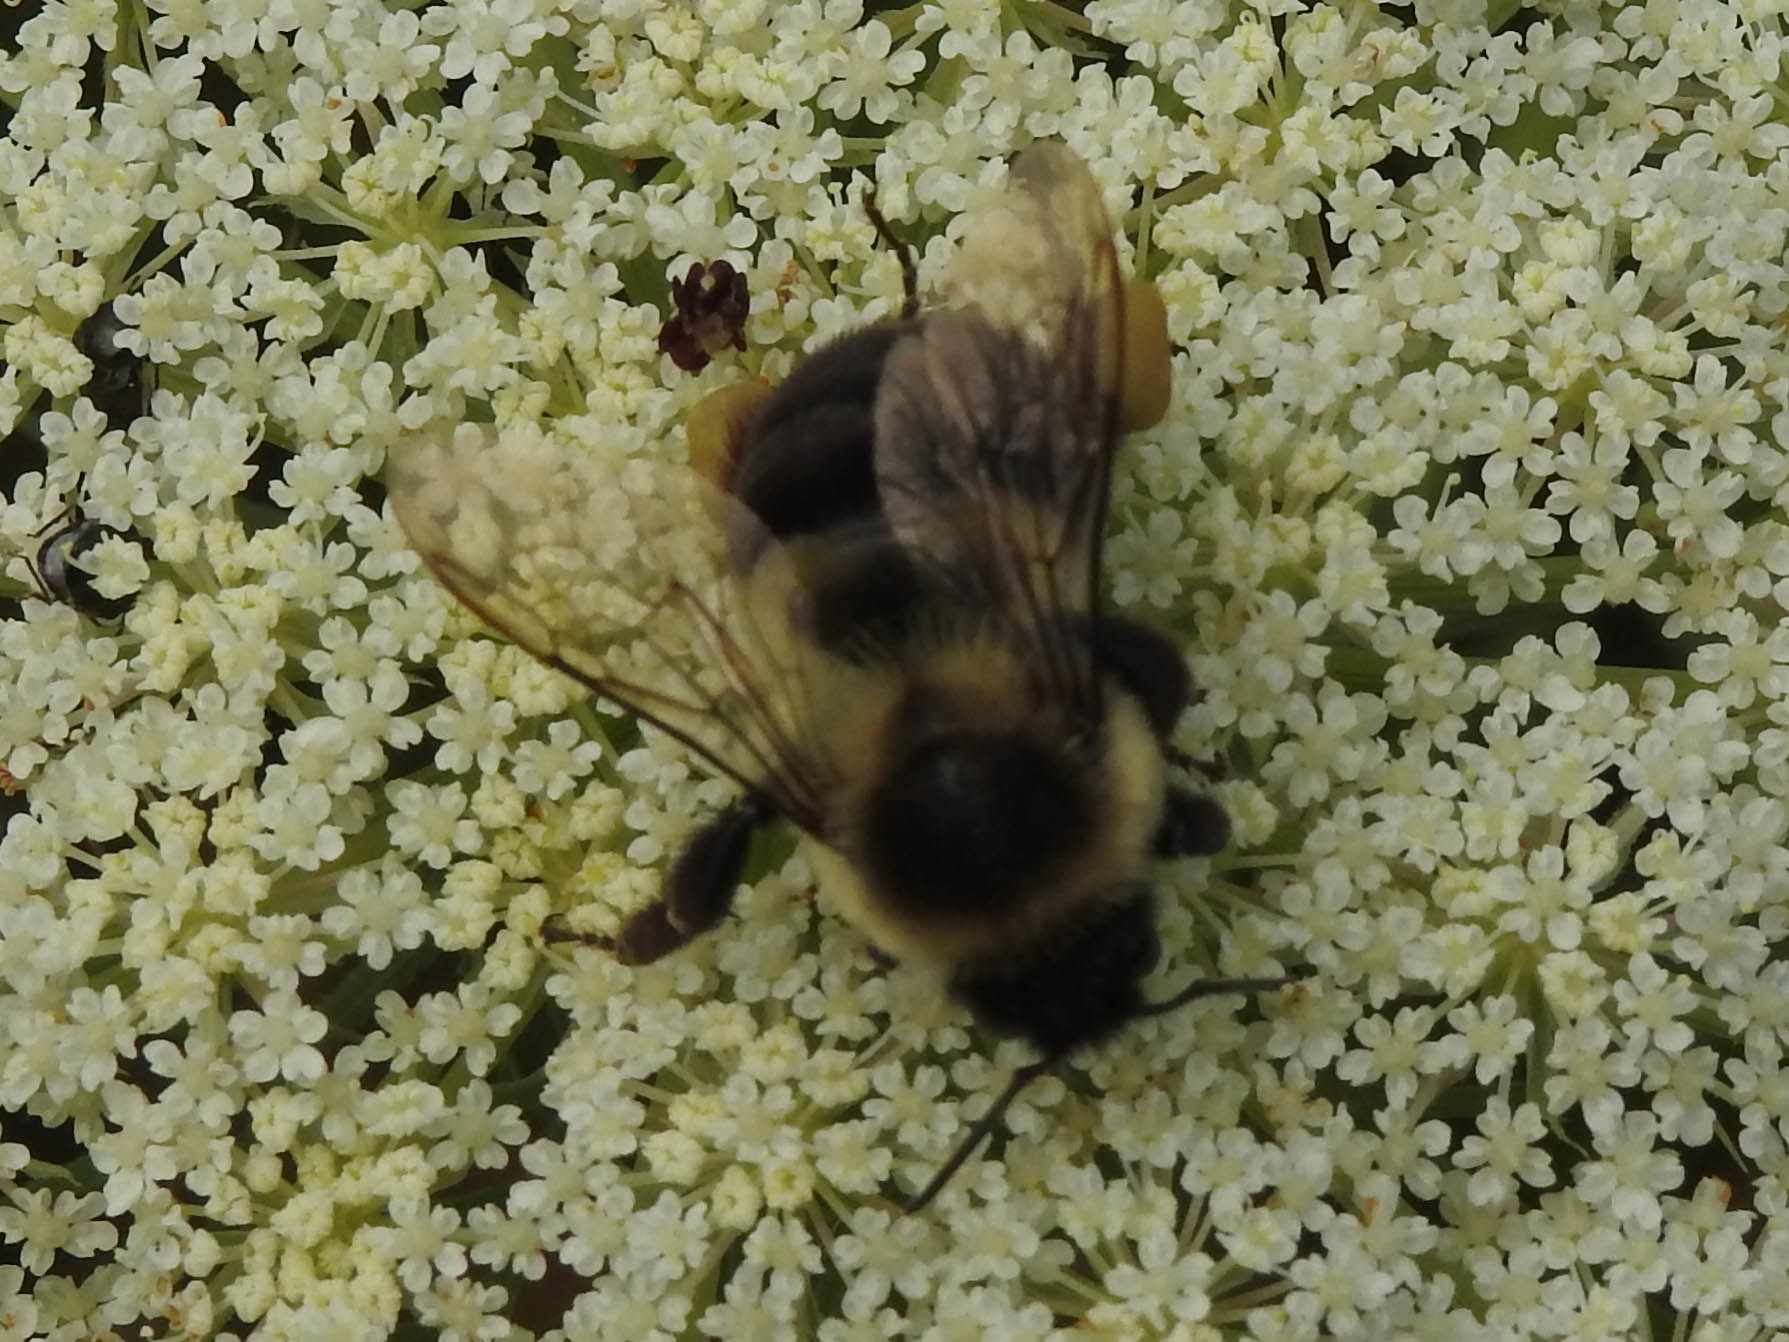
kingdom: Animalia
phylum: Arthropoda
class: Insecta
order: Hymenoptera
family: Apidae
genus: Bombus
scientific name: Bombus impatiens
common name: Common eastern bumble bee
